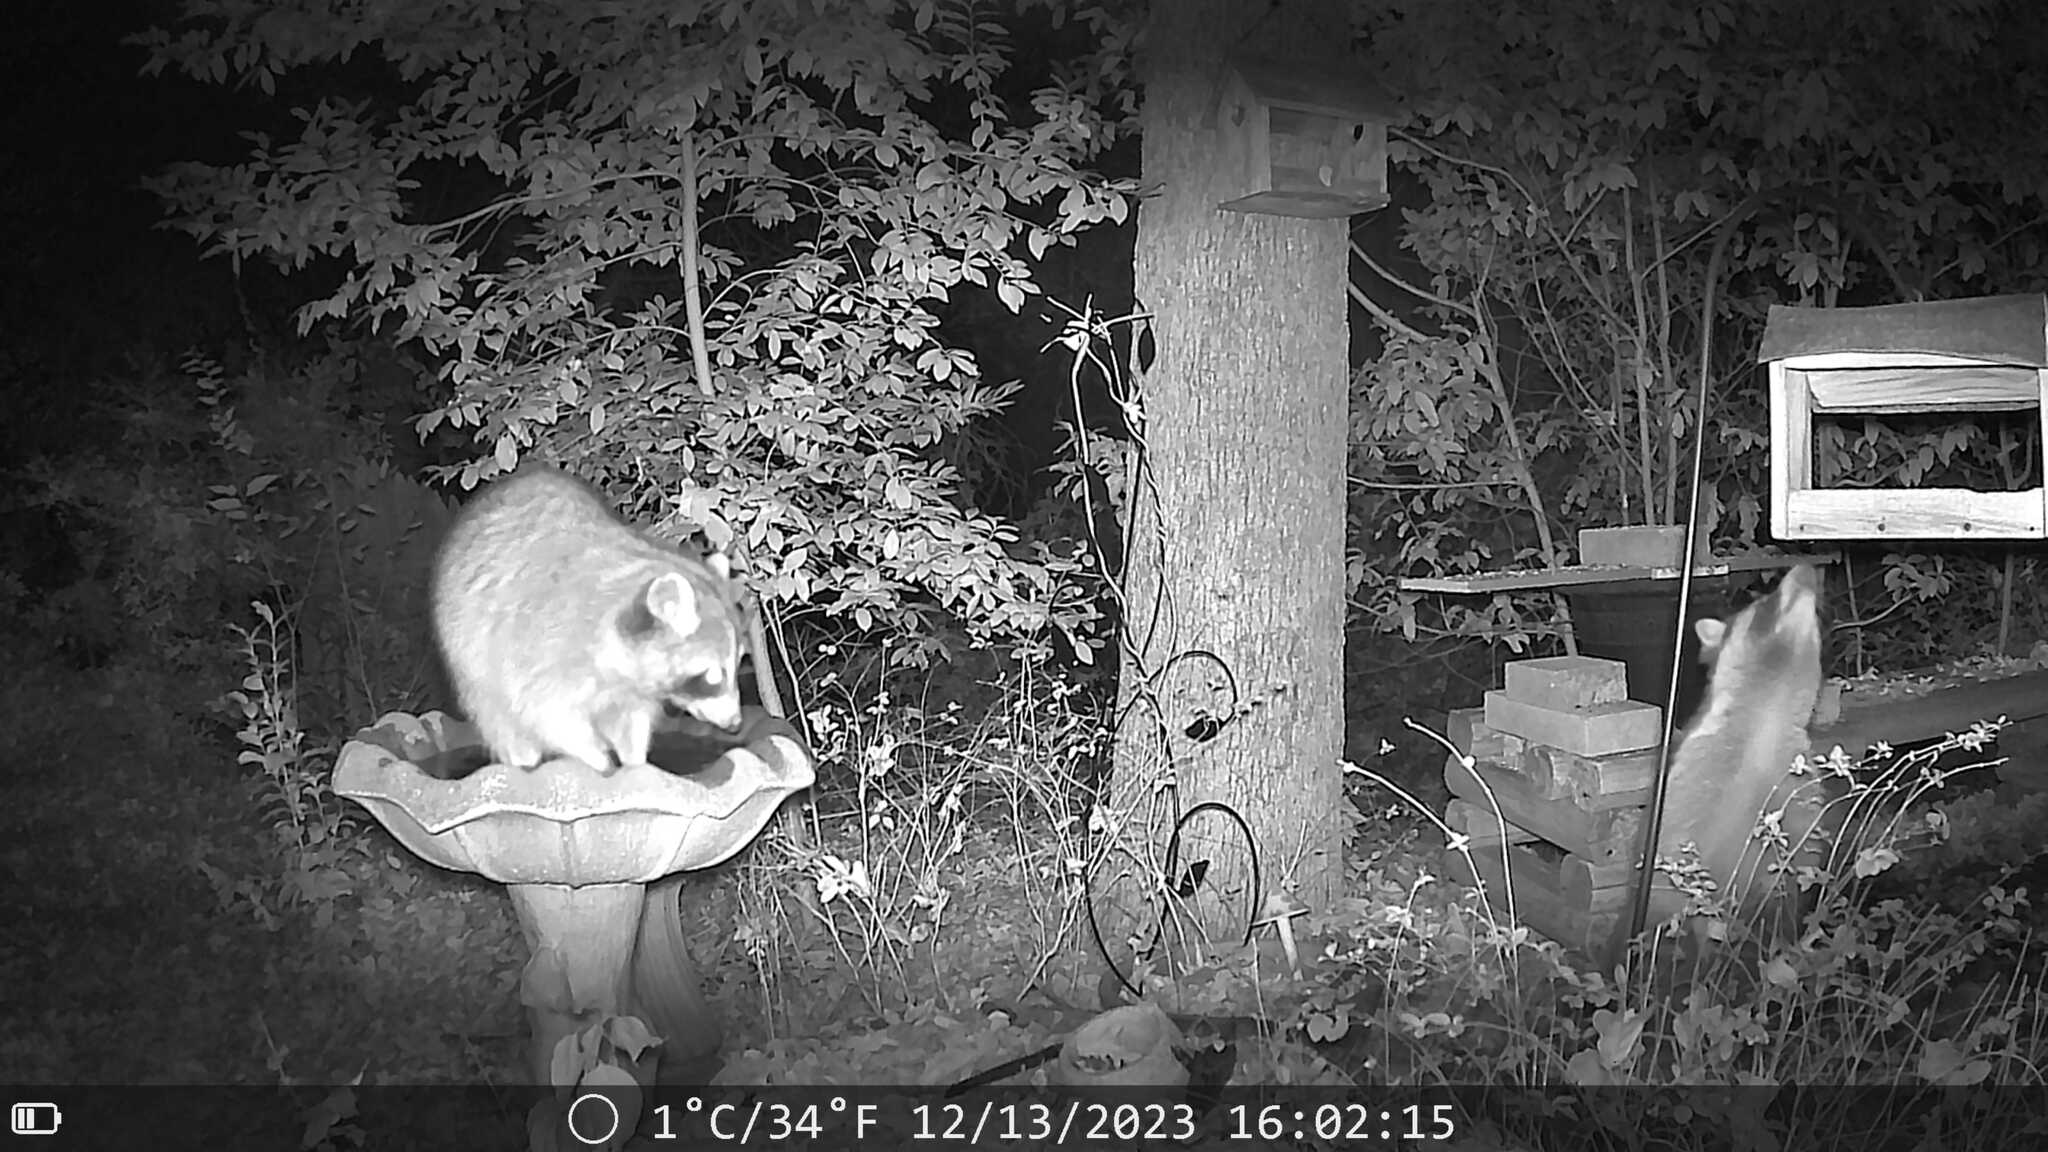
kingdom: Animalia
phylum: Chordata
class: Mammalia
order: Carnivora
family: Procyonidae
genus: Procyon
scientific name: Procyon lotor
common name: Raccoon
